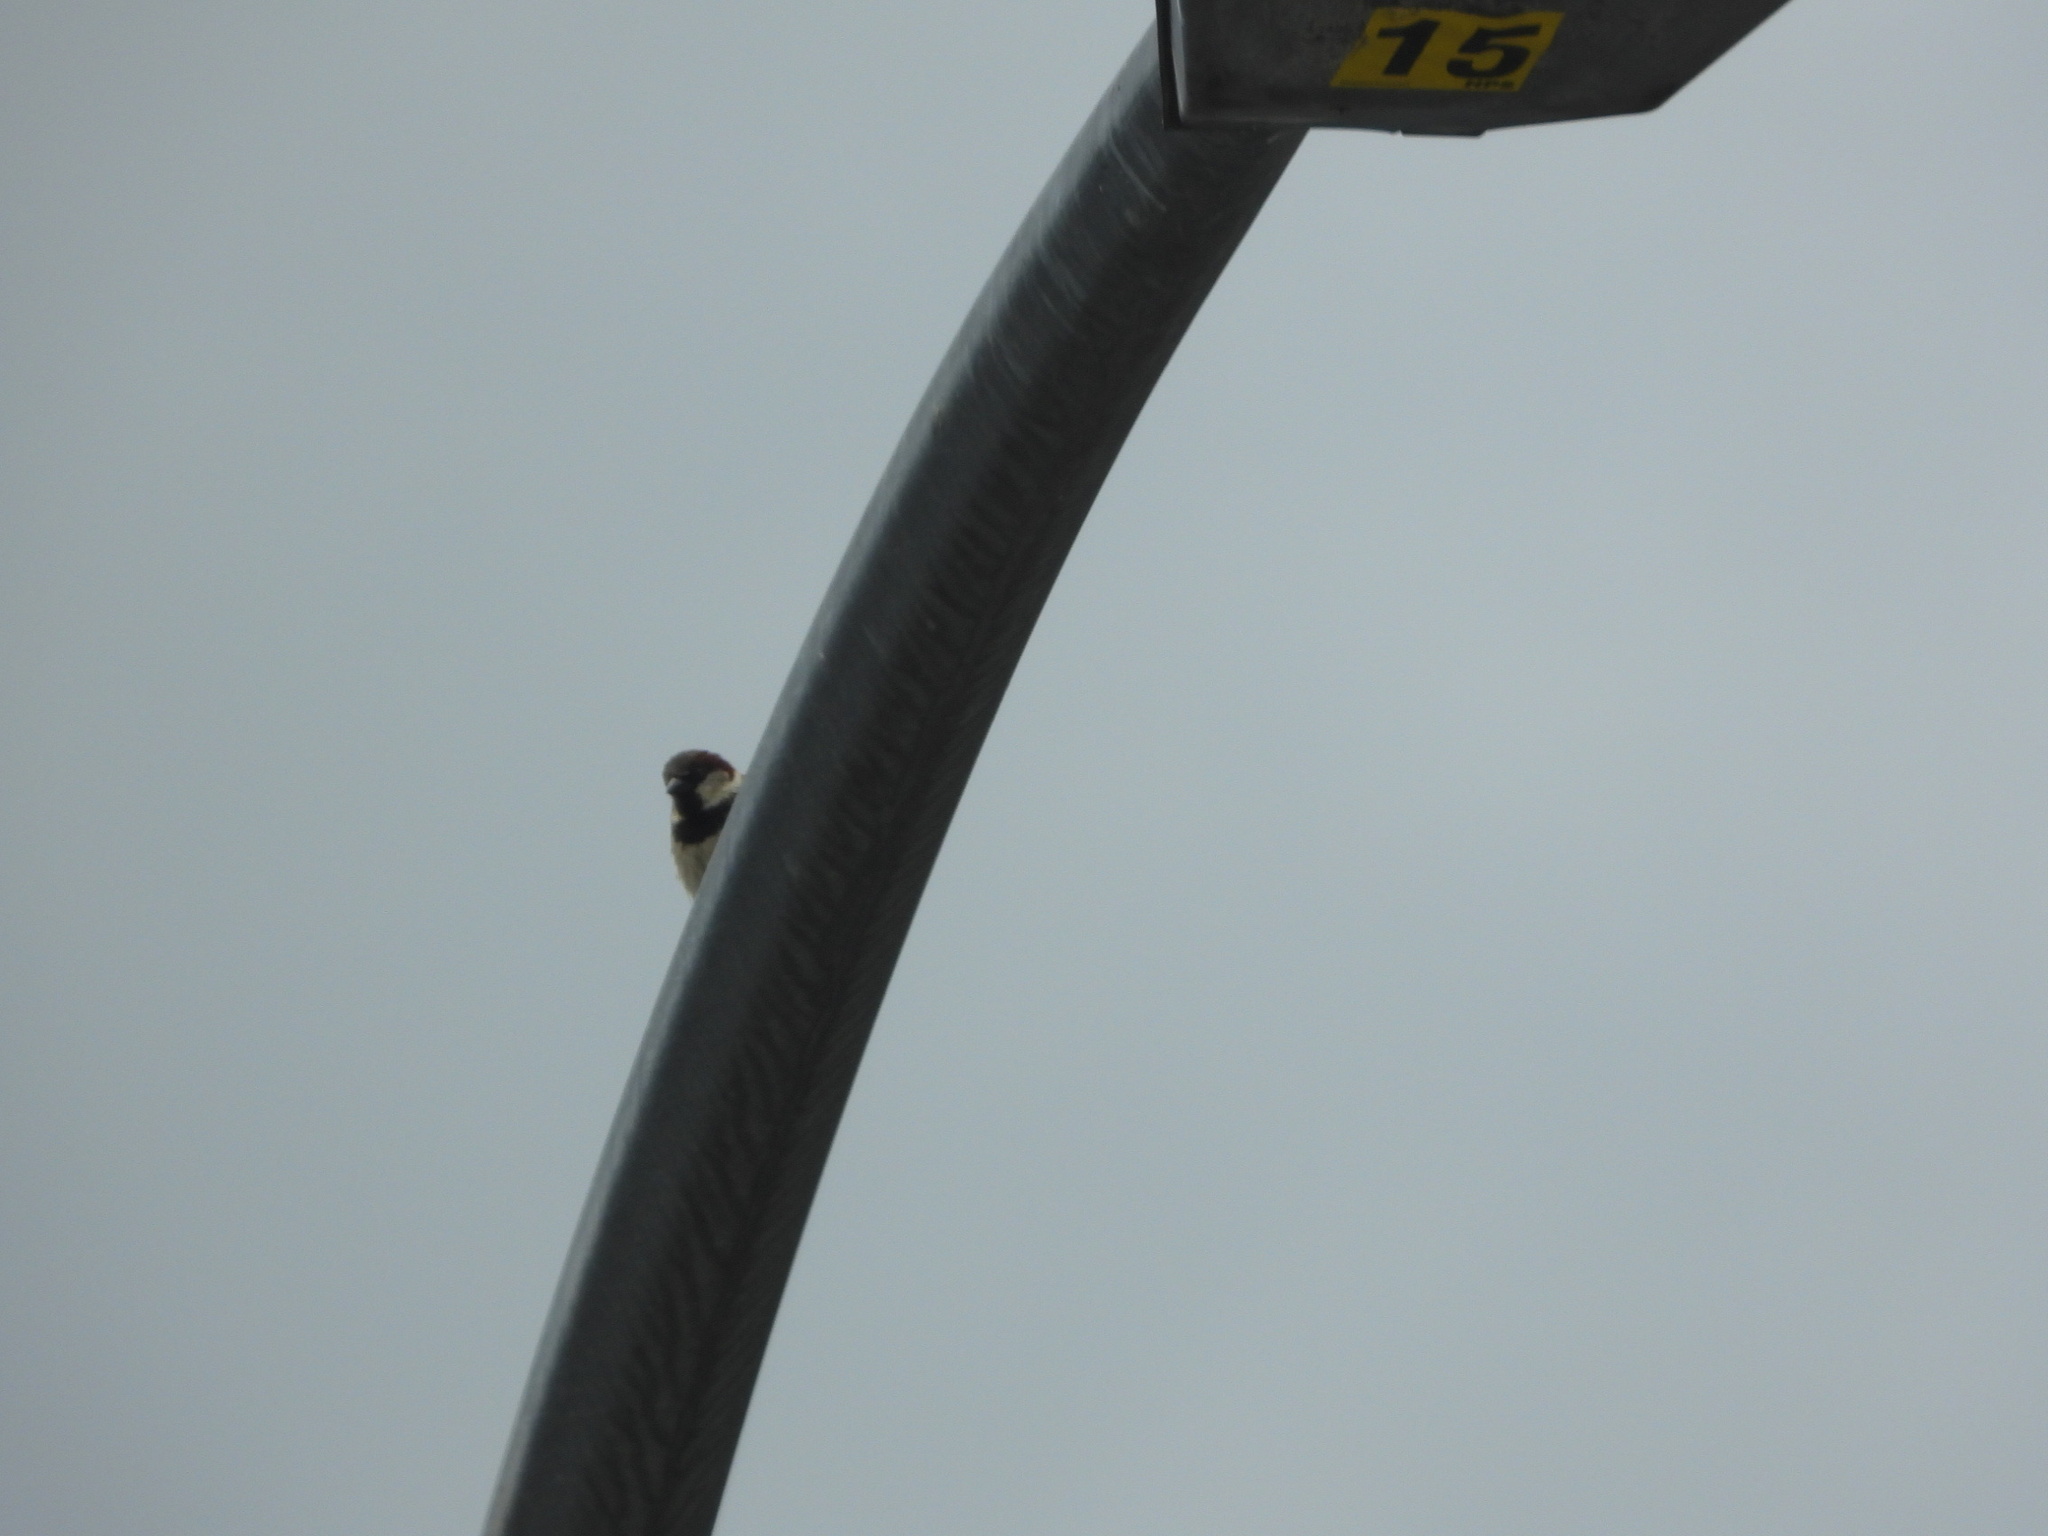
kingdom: Animalia
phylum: Chordata
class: Aves
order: Passeriformes
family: Passeridae
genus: Passer
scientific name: Passer domesticus
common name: House sparrow
